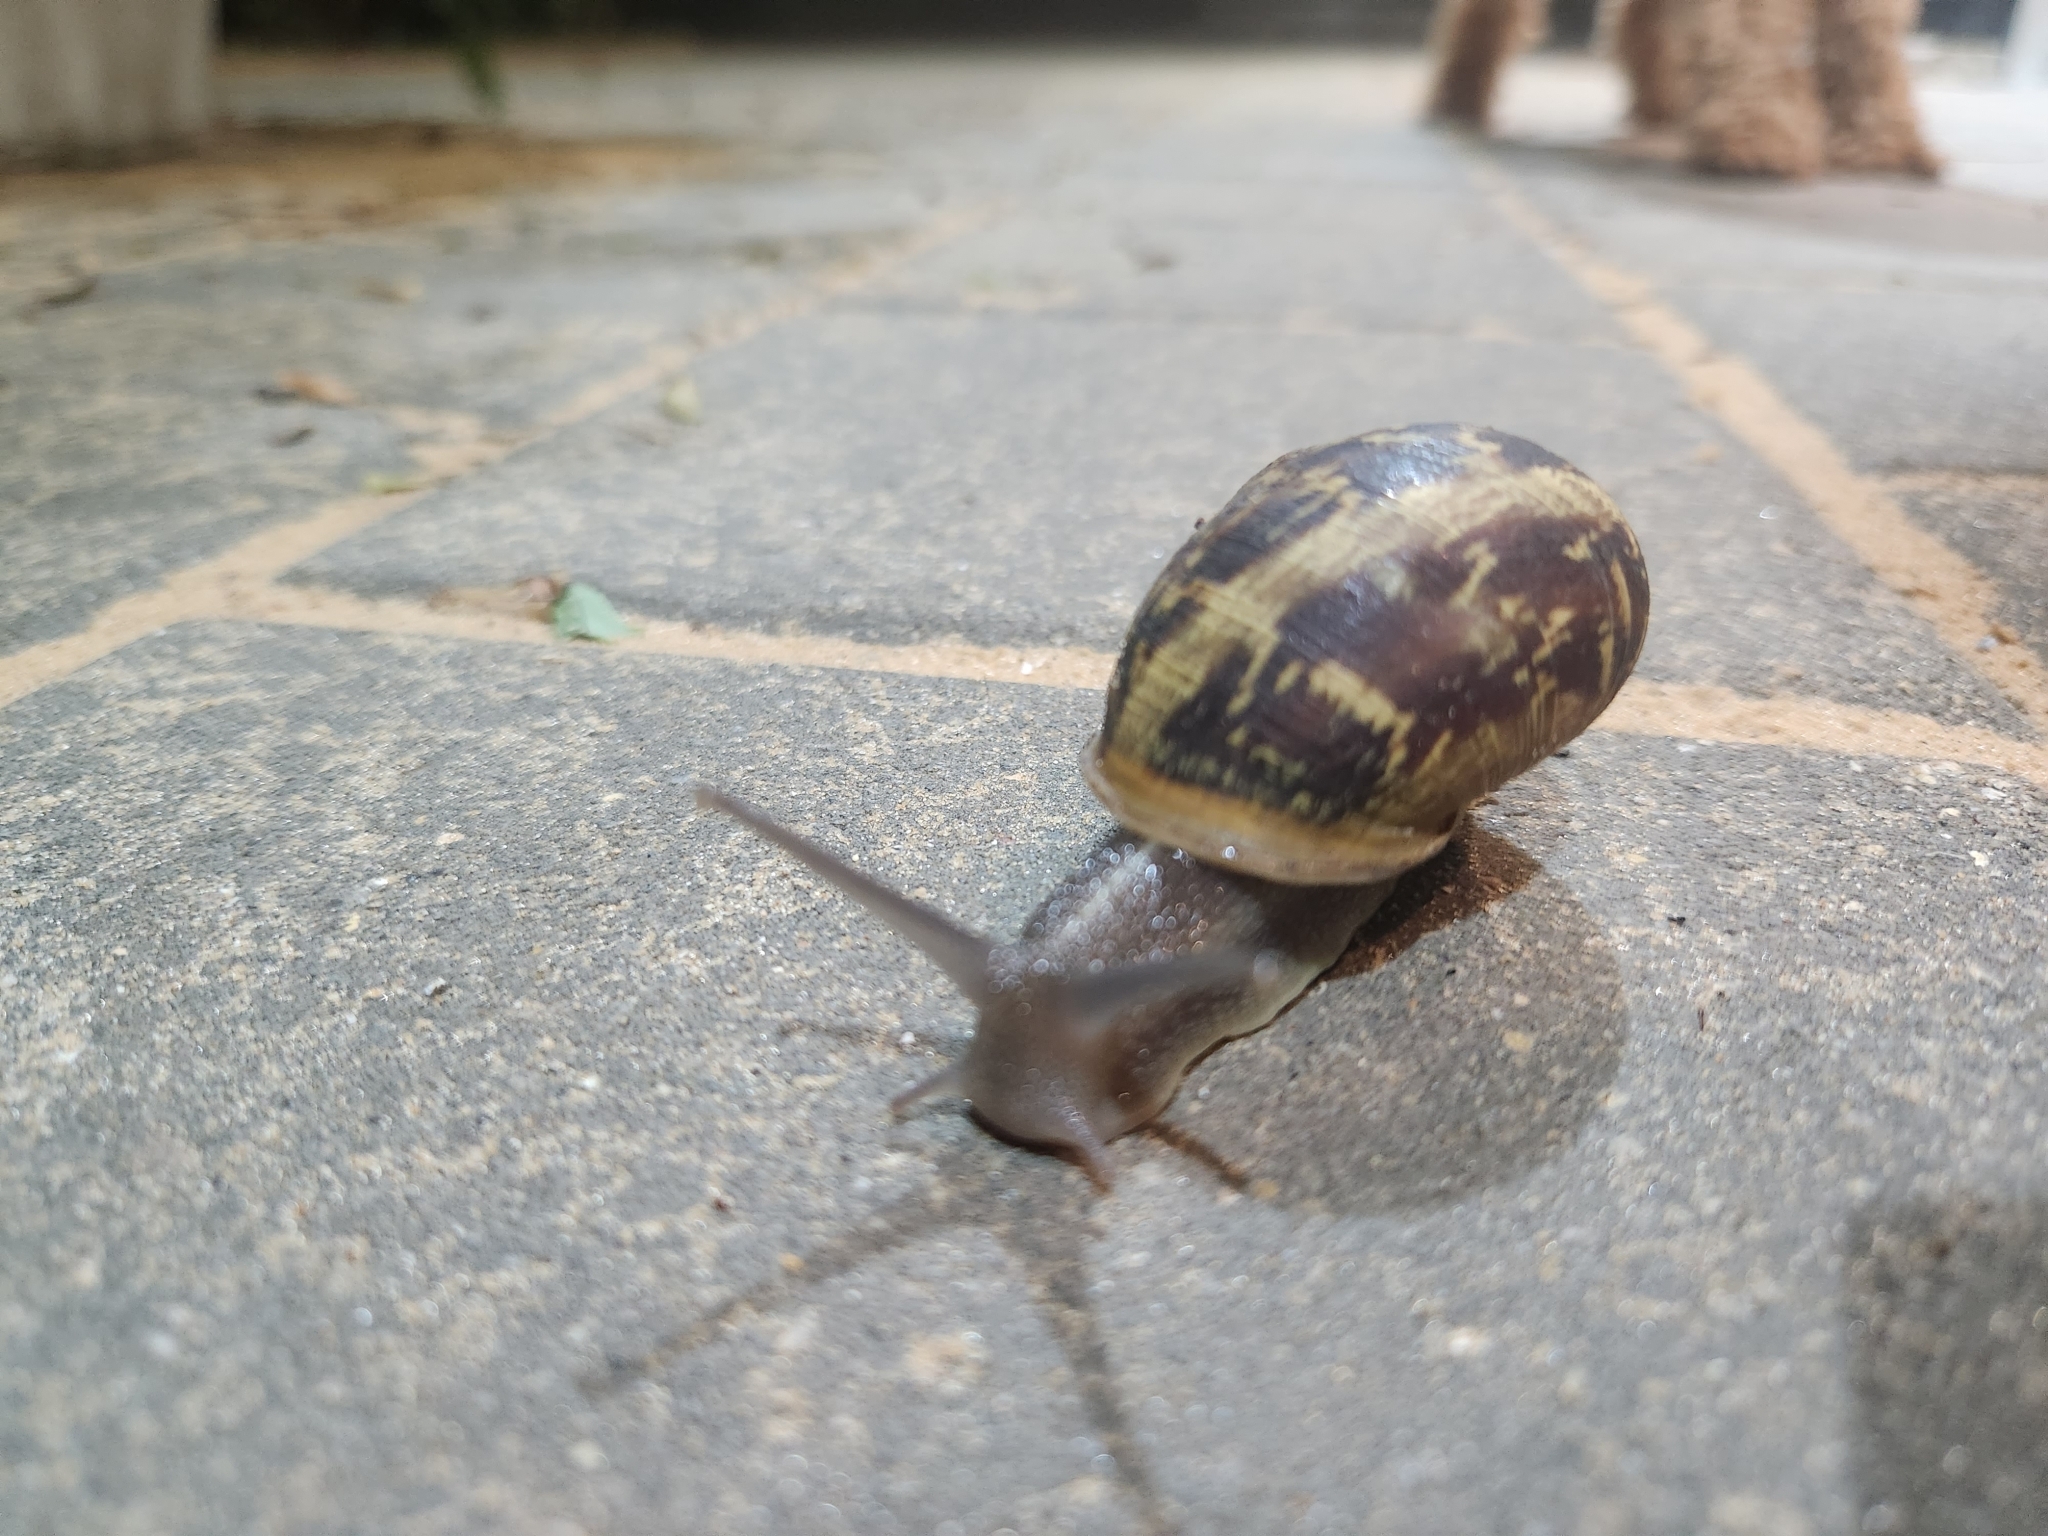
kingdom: Animalia
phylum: Mollusca
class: Gastropoda
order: Stylommatophora
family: Helicidae
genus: Cornu
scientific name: Cornu aspersum
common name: Brown garden snail
